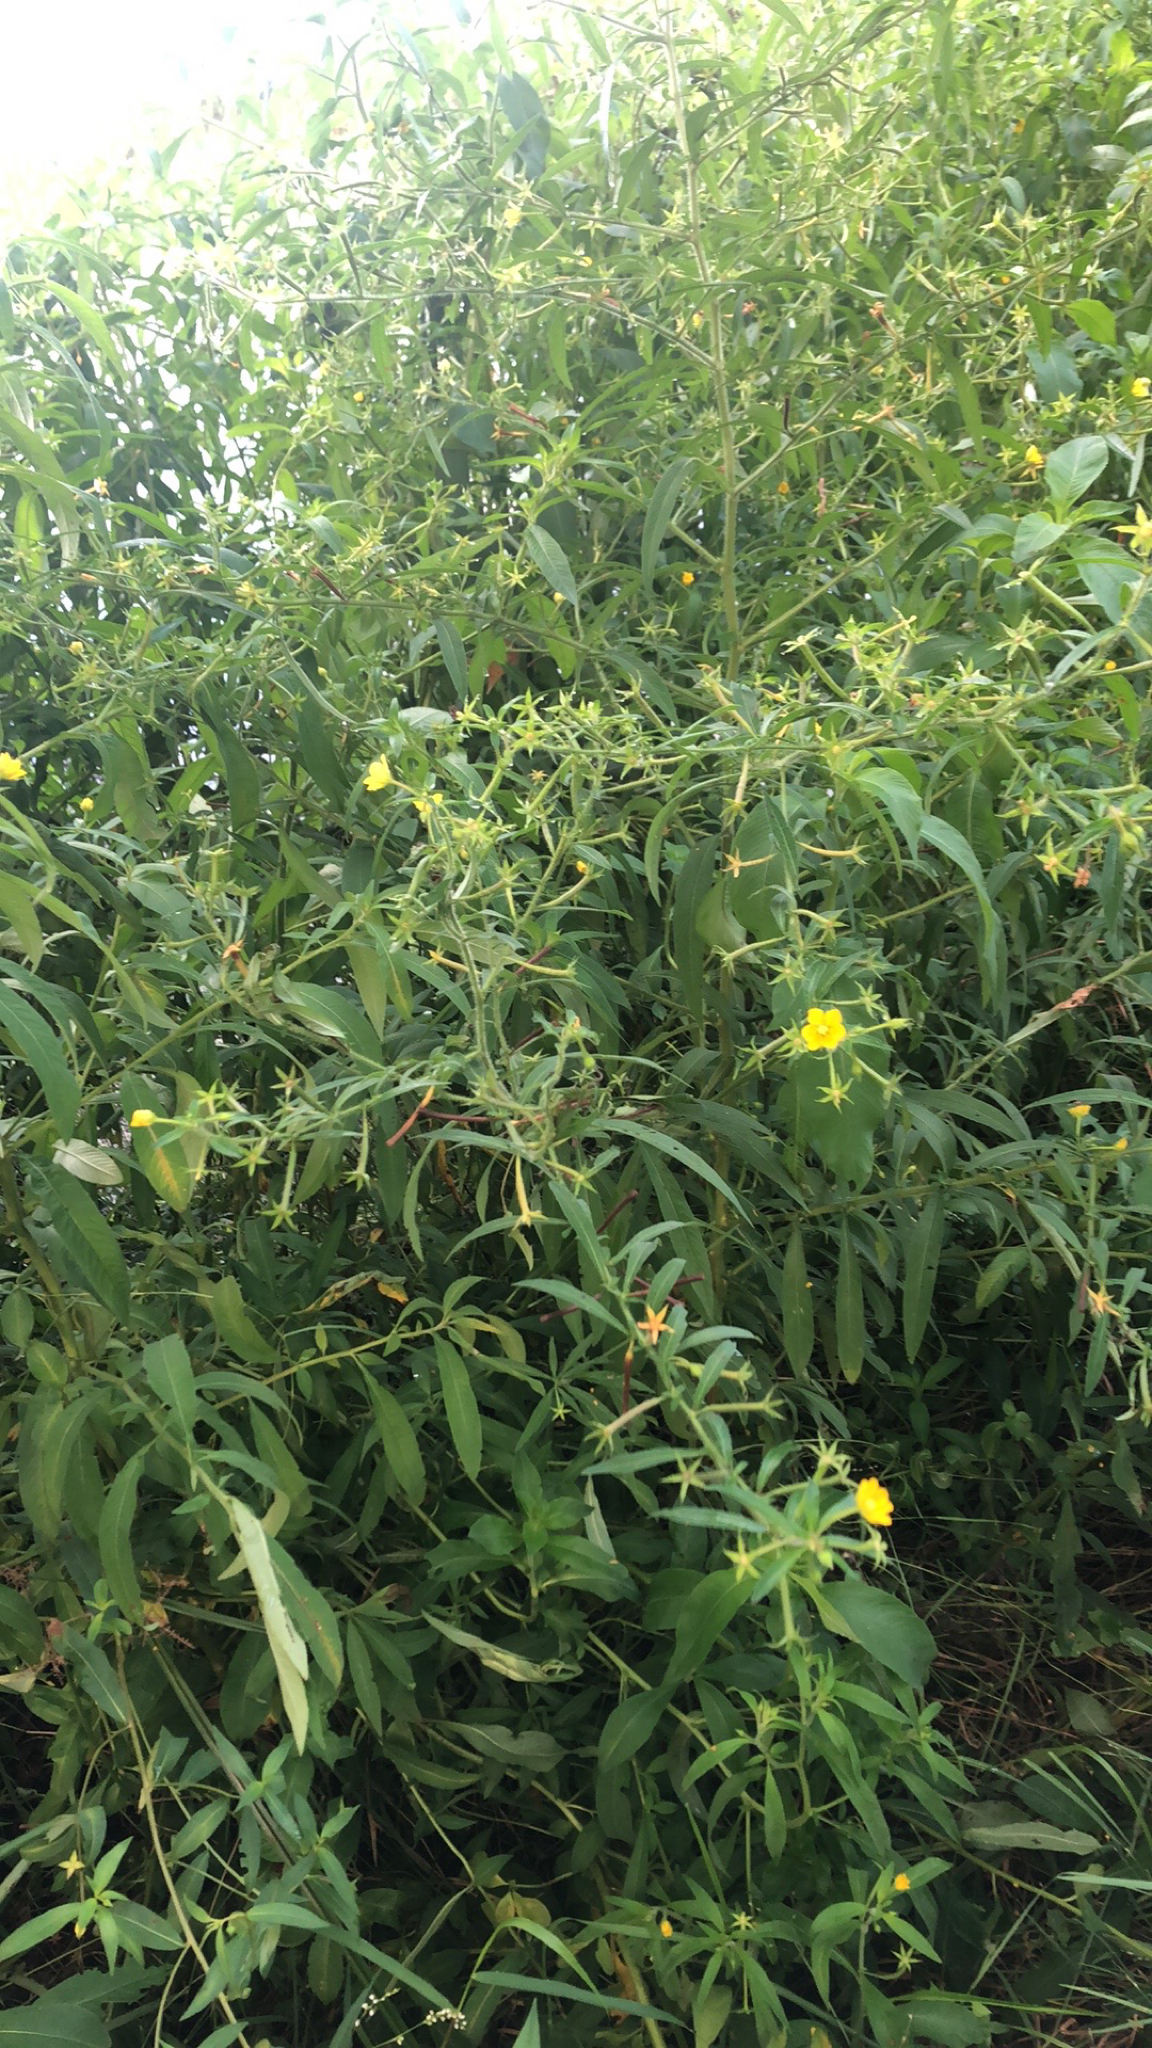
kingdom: Plantae
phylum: Tracheophyta
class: Magnoliopsida
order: Myrtales
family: Onagraceae
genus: Ludwigia
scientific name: Ludwigia leptocarpa
